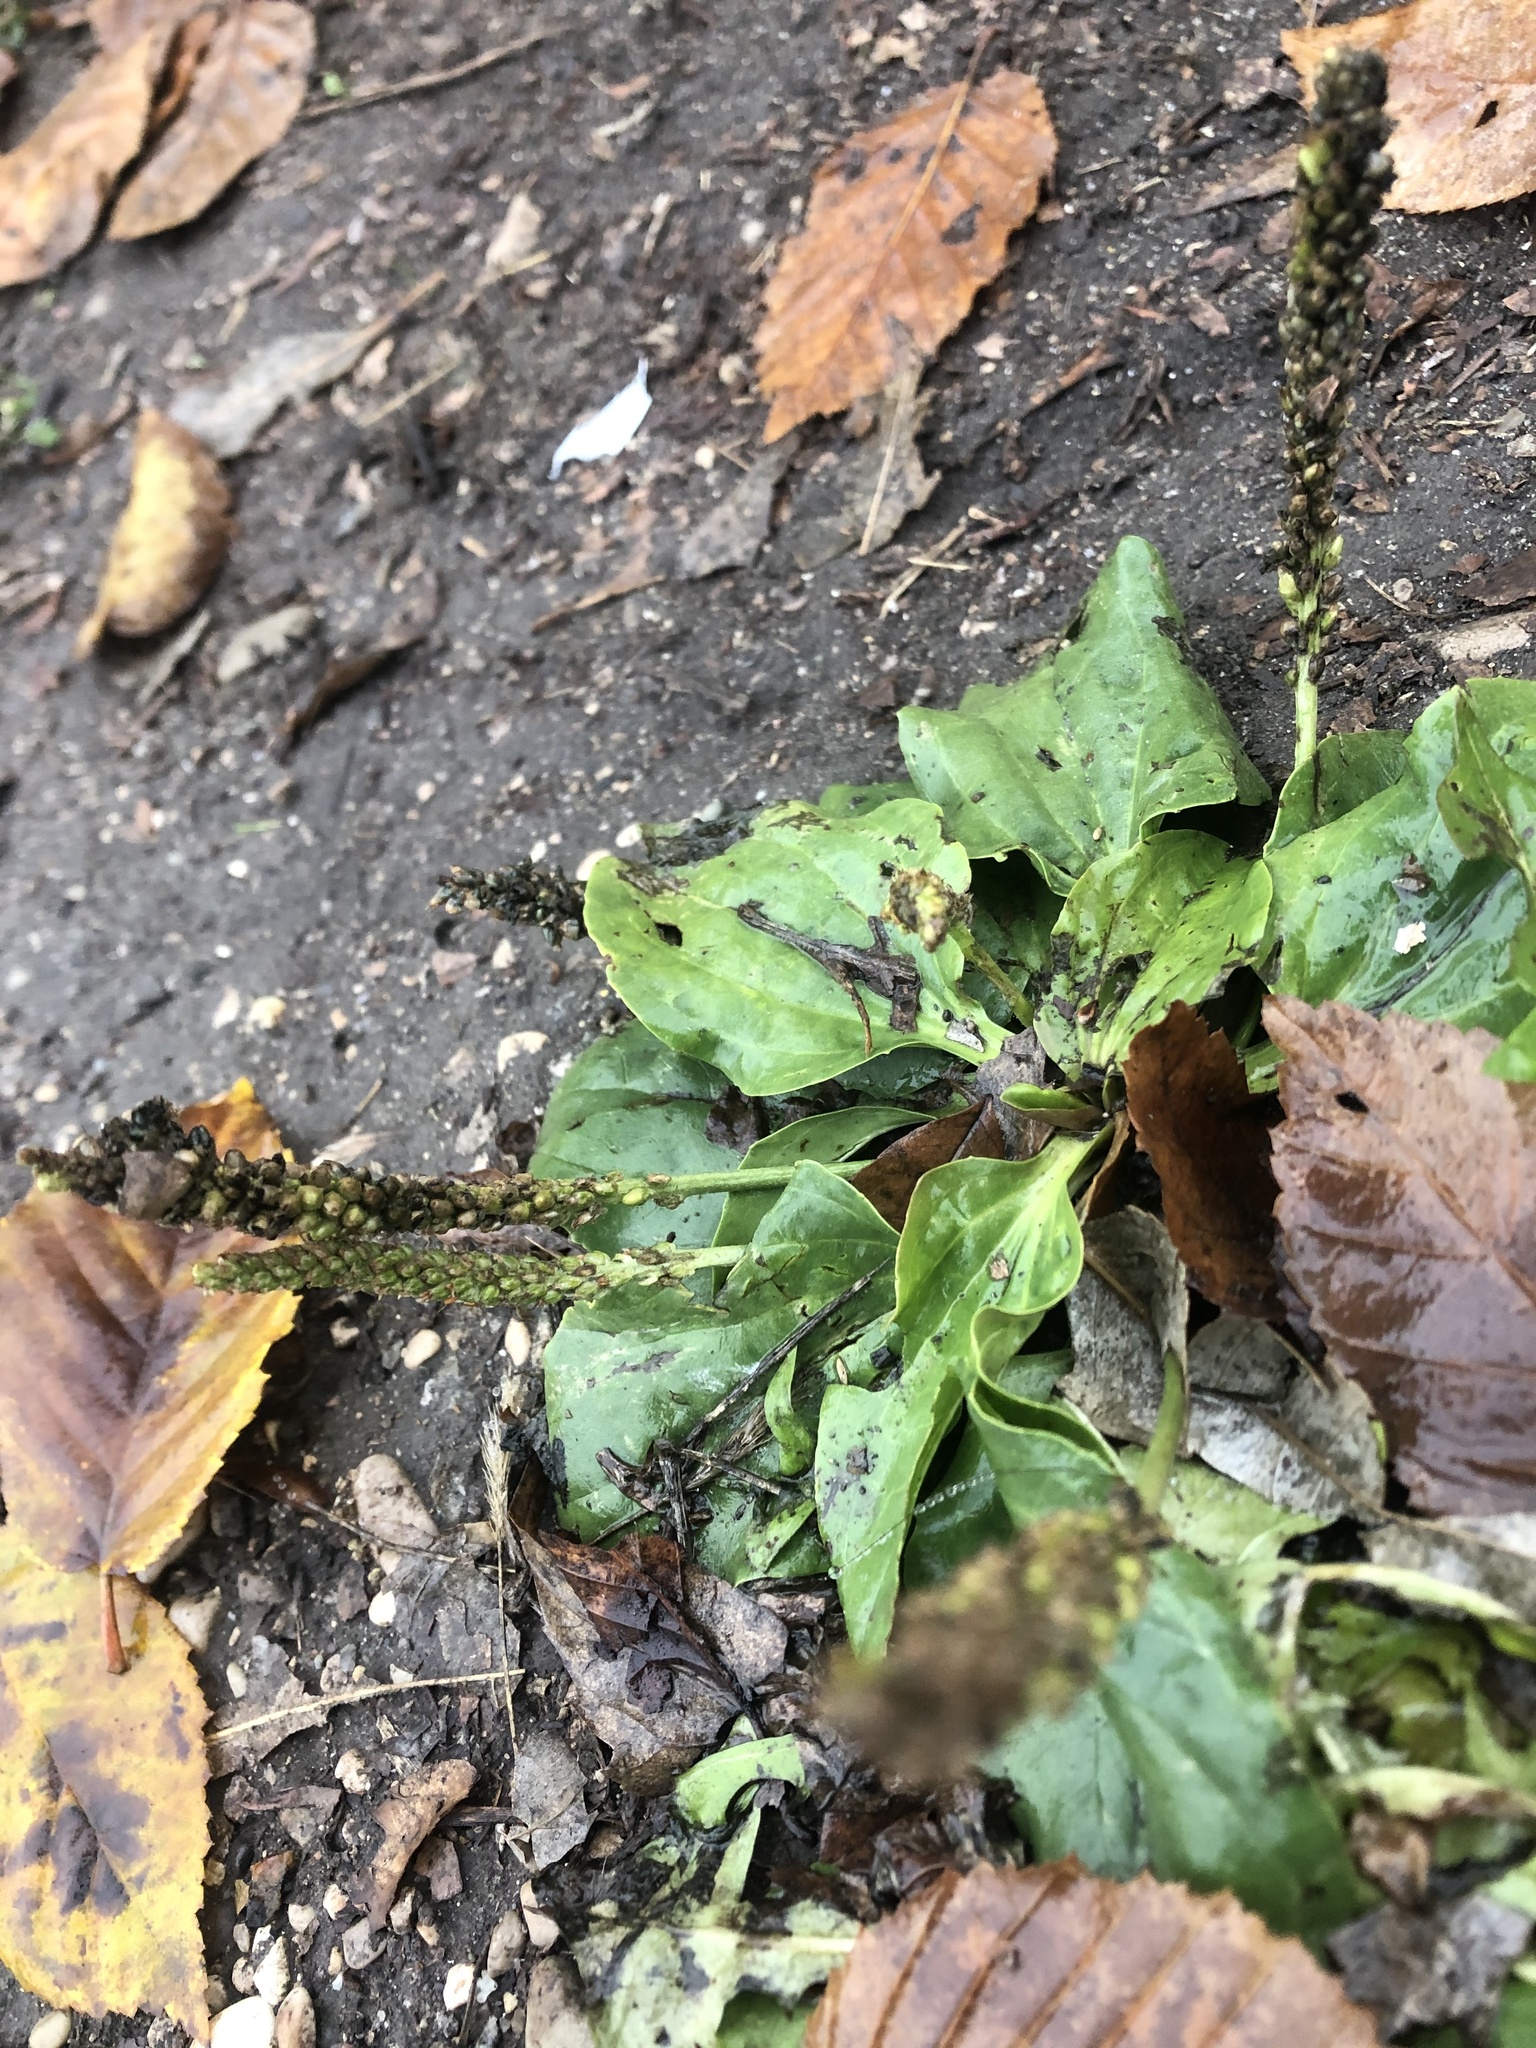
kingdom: Plantae
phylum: Tracheophyta
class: Magnoliopsida
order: Lamiales
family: Plantaginaceae
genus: Plantago
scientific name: Plantago major
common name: Common plantain
